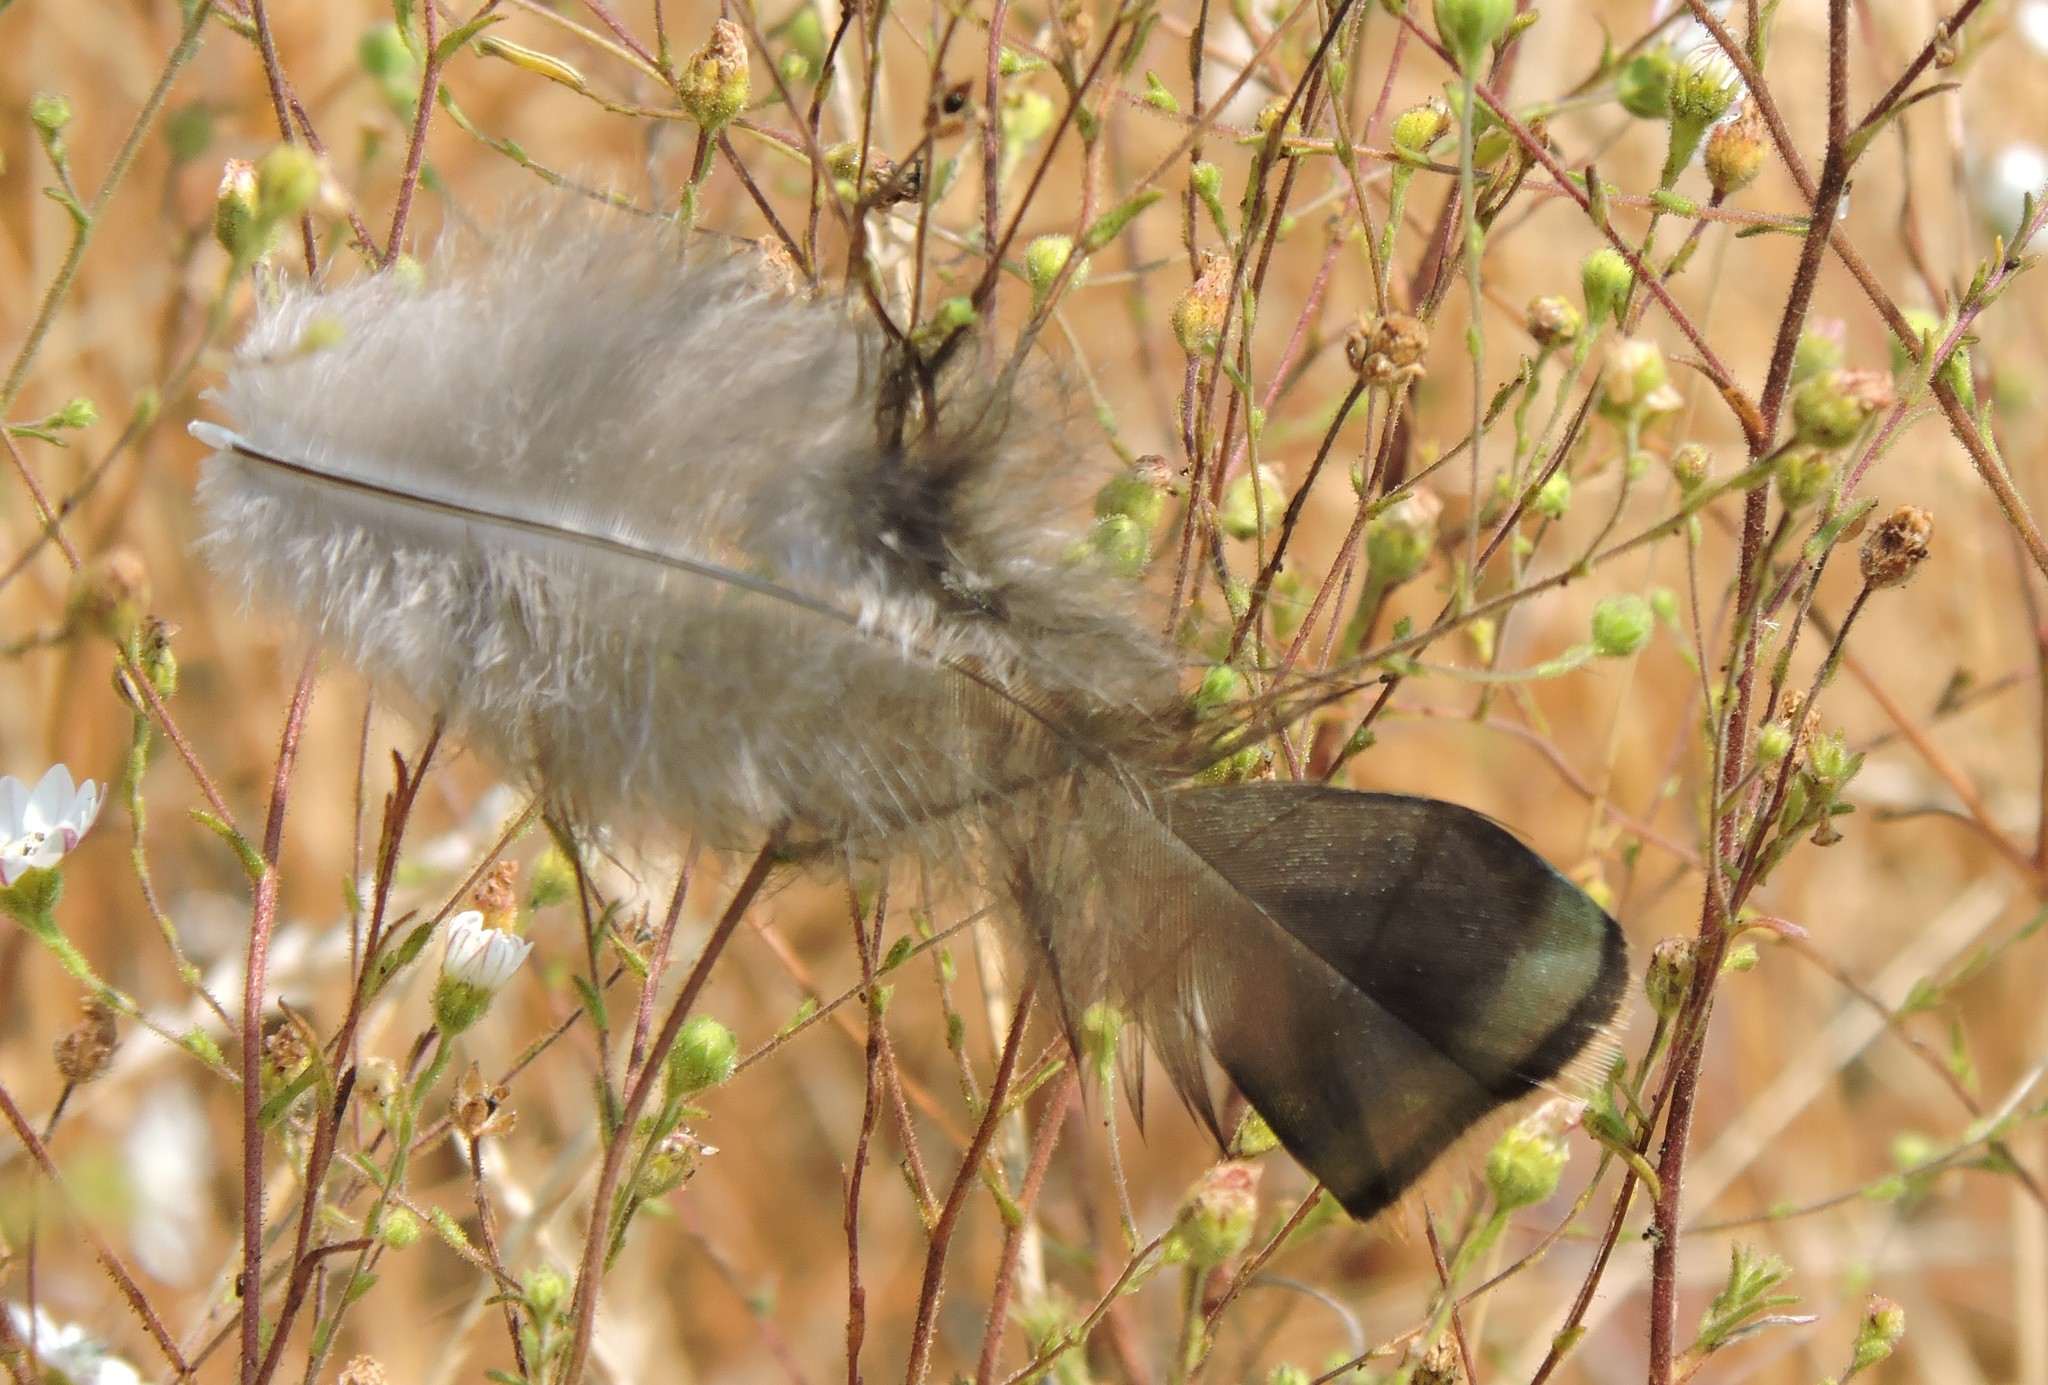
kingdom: Animalia
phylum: Chordata
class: Aves
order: Galliformes
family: Phasianidae
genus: Meleagris
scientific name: Meleagris gallopavo
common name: Wild turkey
